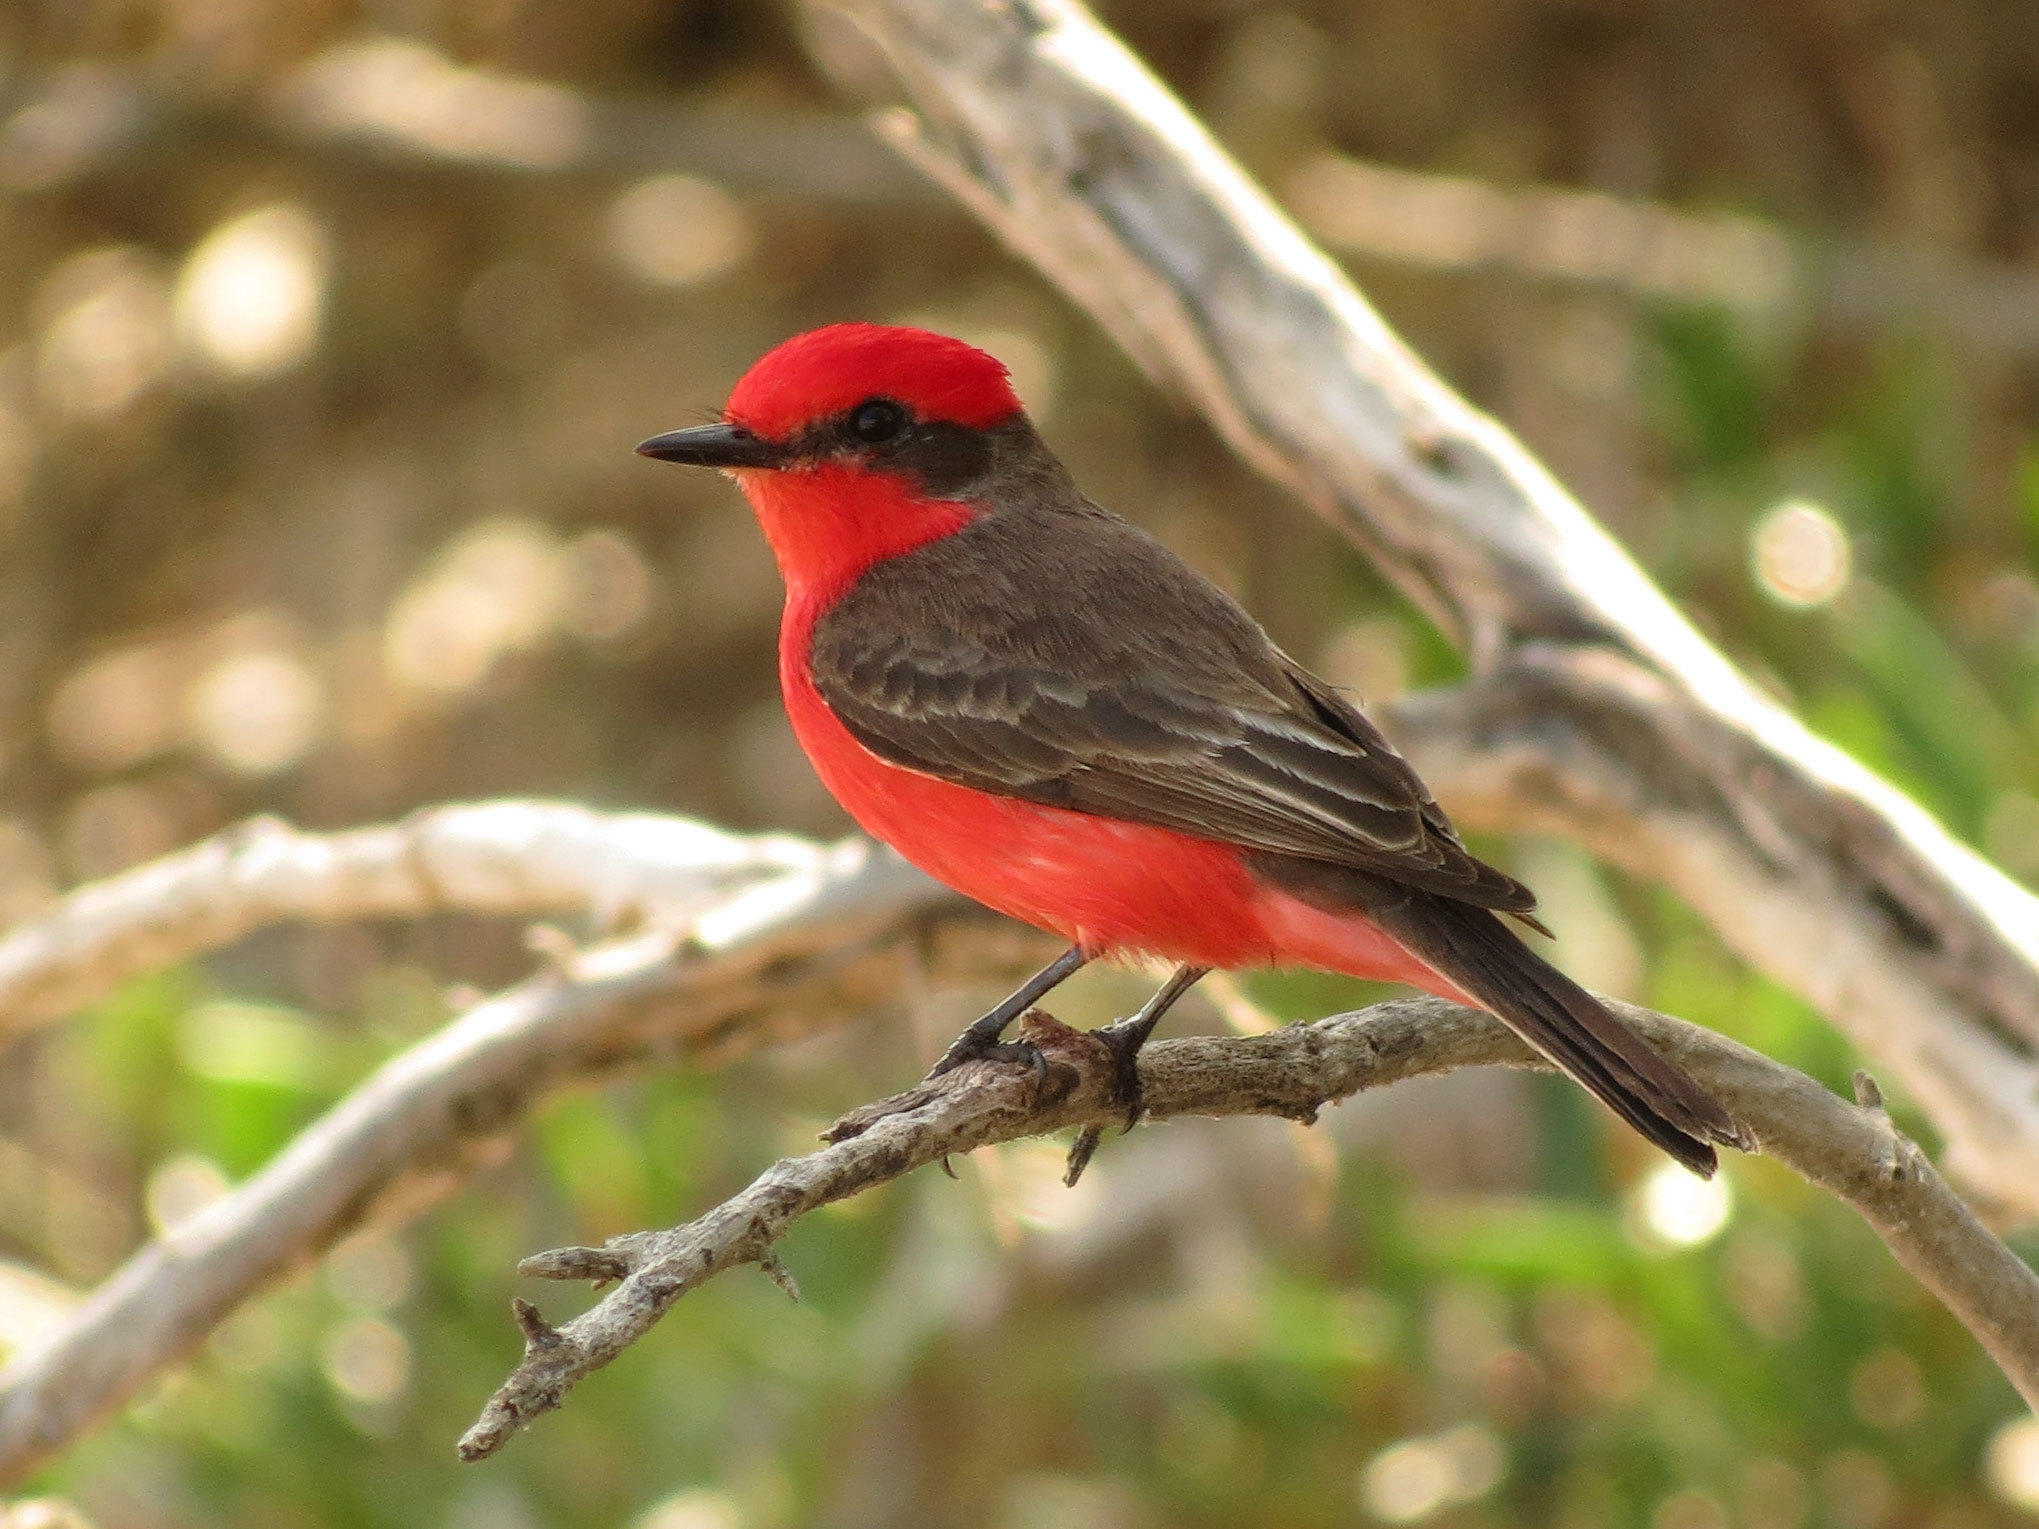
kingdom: Animalia
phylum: Chordata
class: Aves
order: Passeriformes
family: Tyrannidae
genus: Pyrocephalus
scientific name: Pyrocephalus rubinus
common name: Vermilion flycatcher
